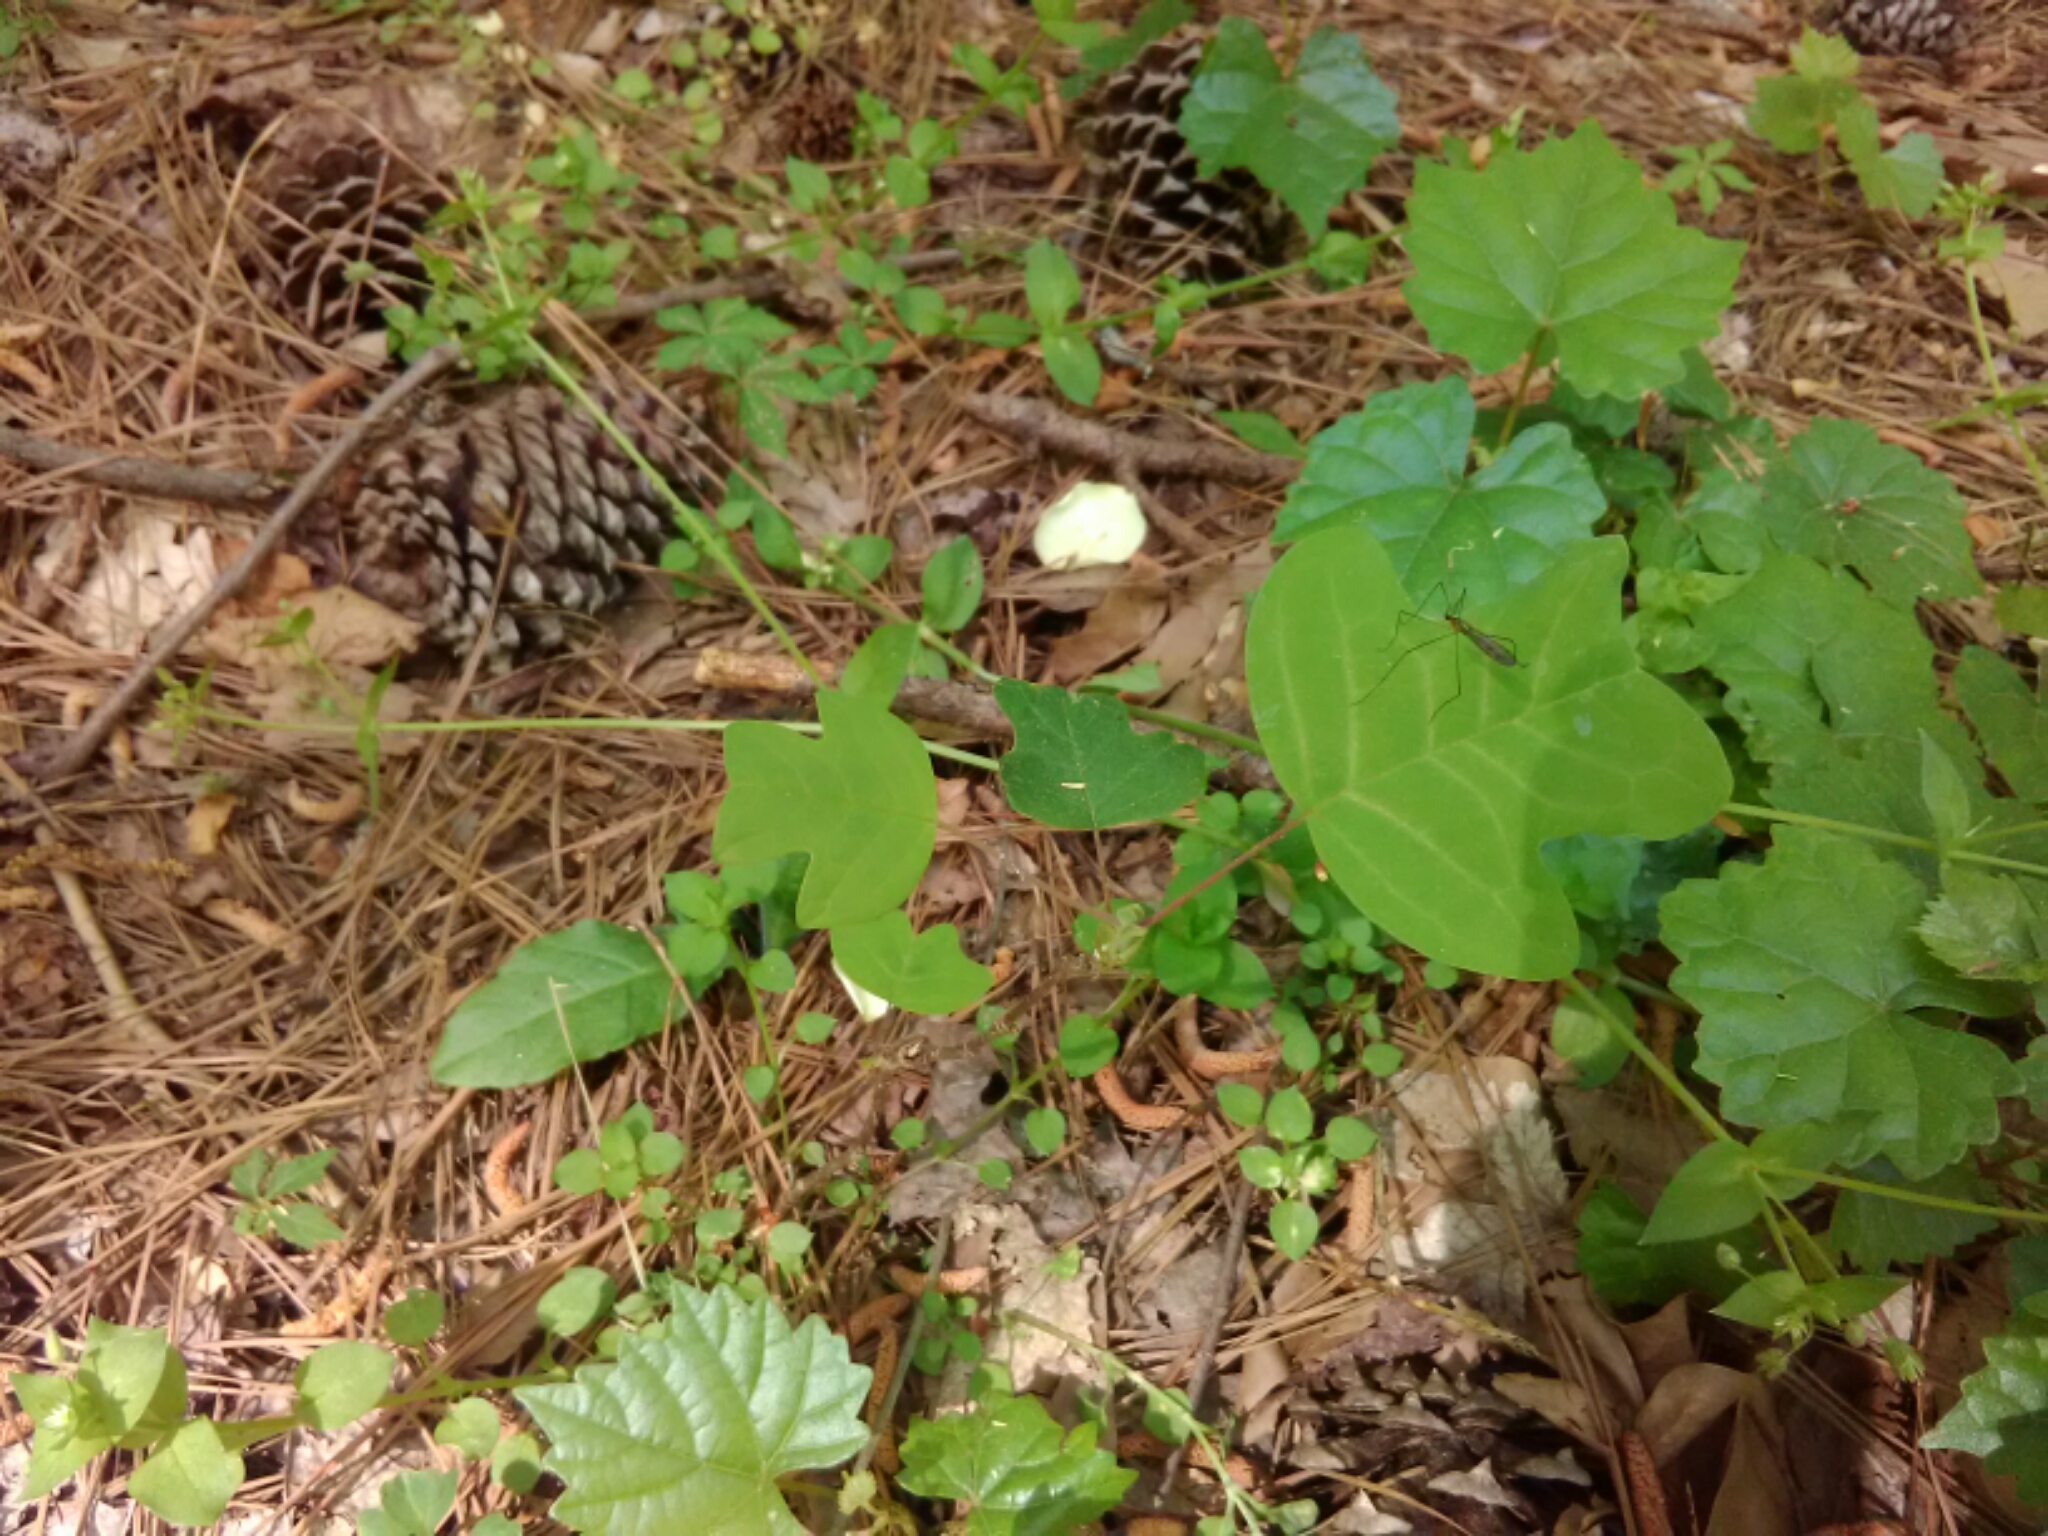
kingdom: Plantae
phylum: Tracheophyta
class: Magnoliopsida
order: Magnoliales
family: Magnoliaceae
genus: Liriodendron
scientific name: Liriodendron tulipifera
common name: Tulip tree
